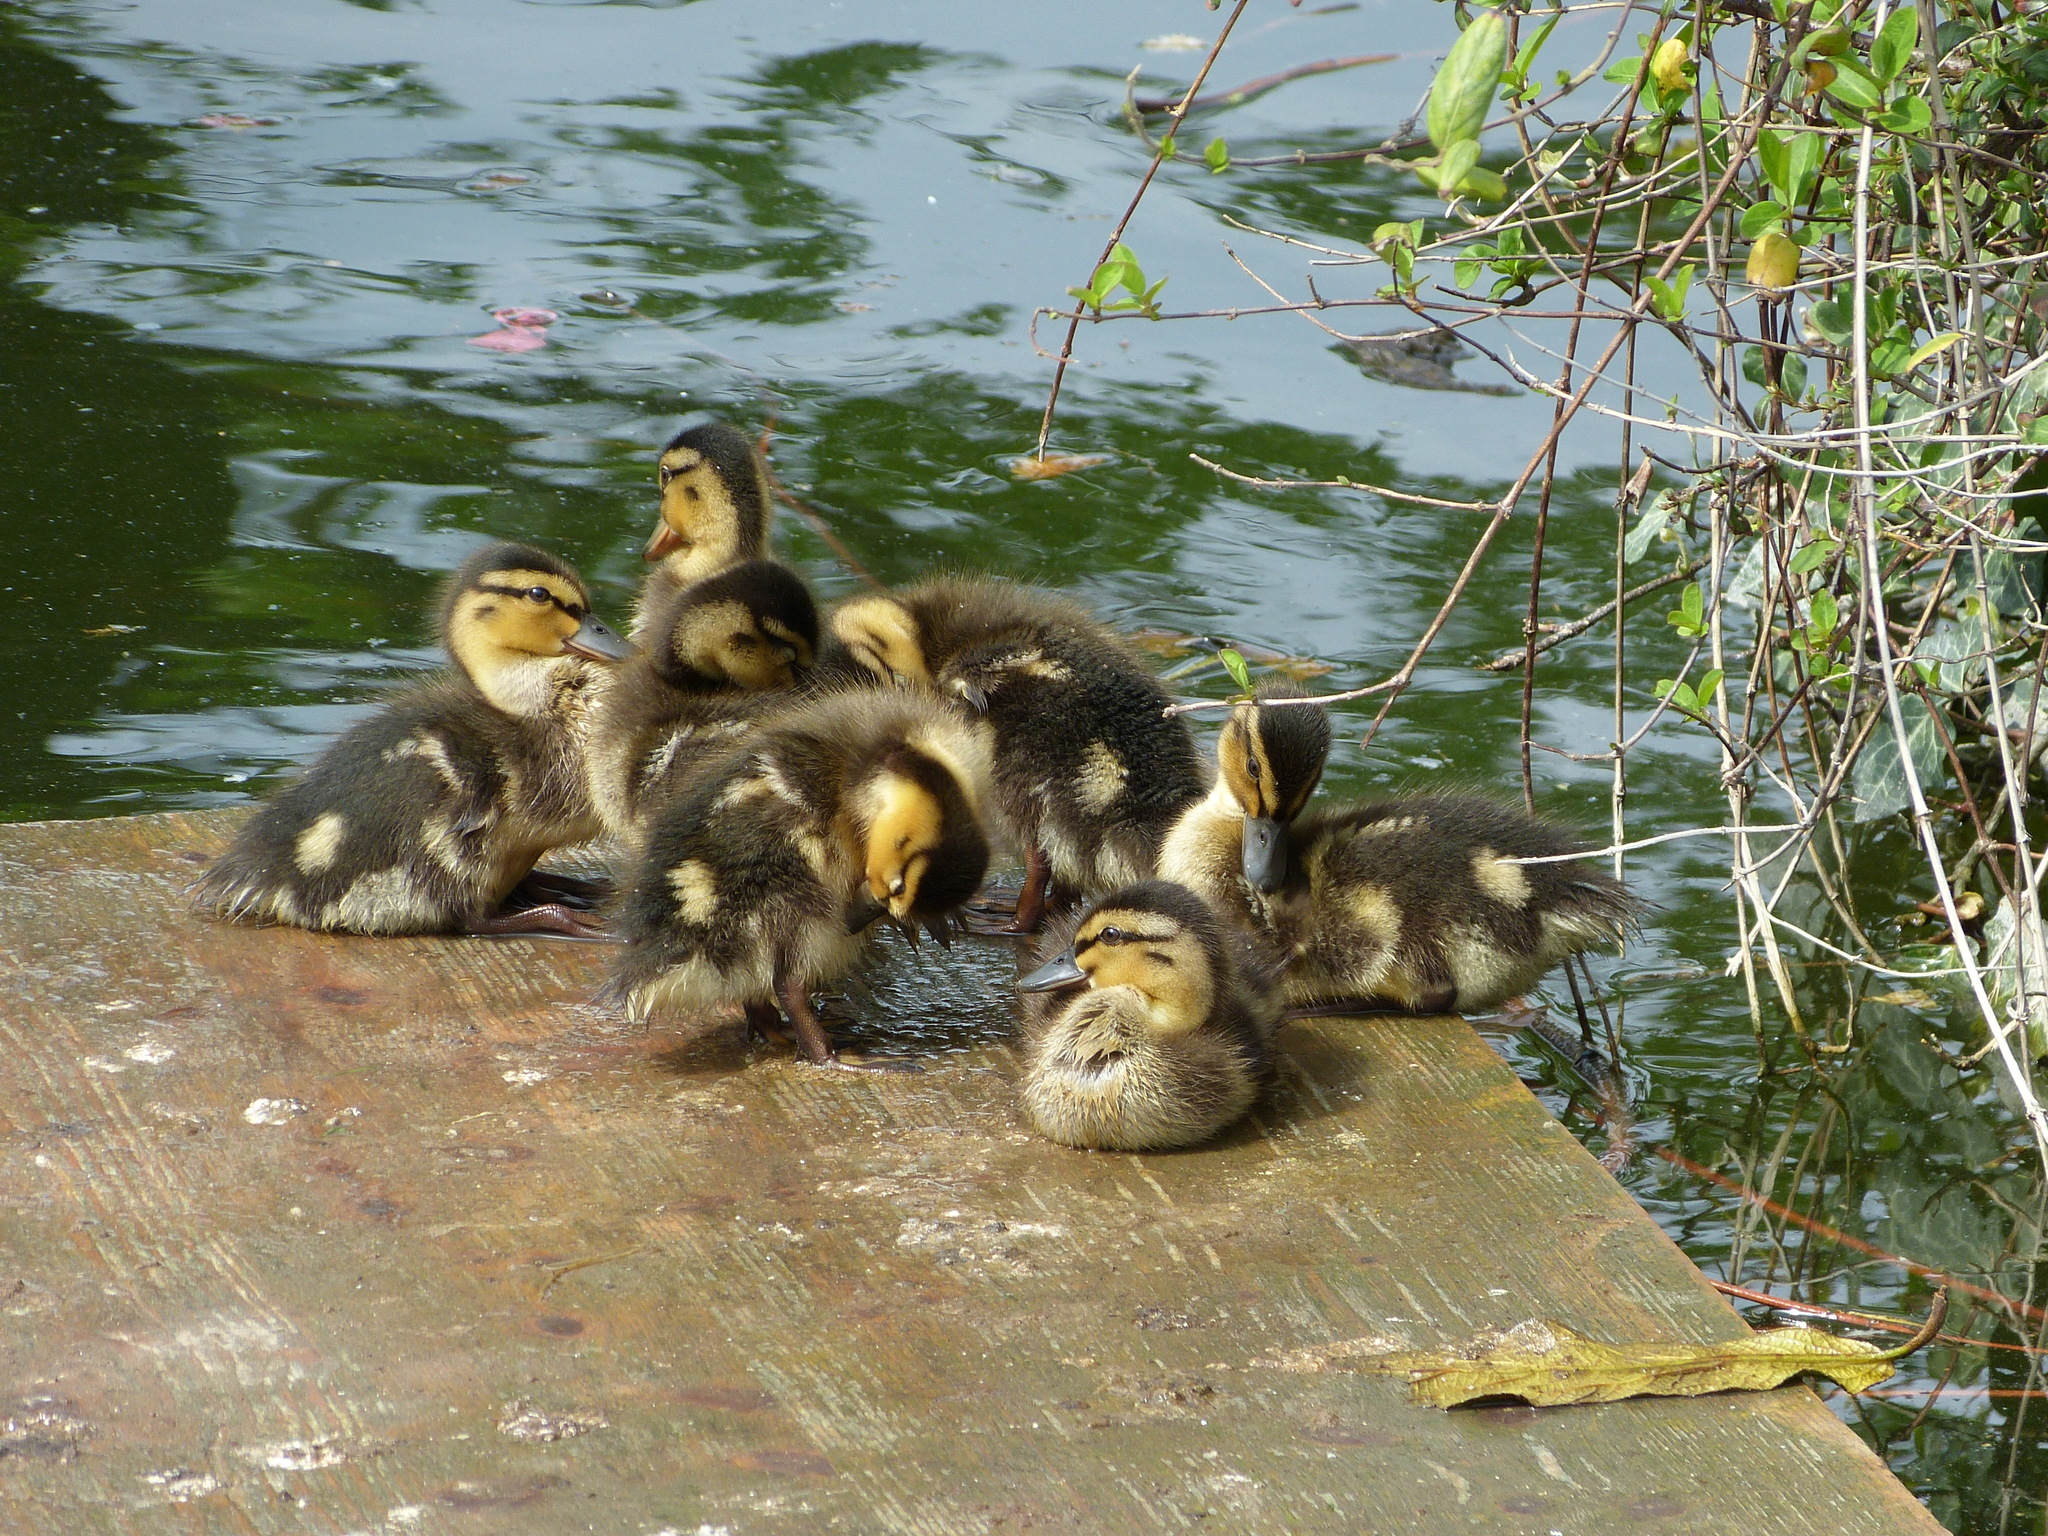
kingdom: Animalia
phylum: Chordata
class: Aves
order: Anseriformes
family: Anatidae
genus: Anas
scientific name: Anas platyrhynchos
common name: Mallard
